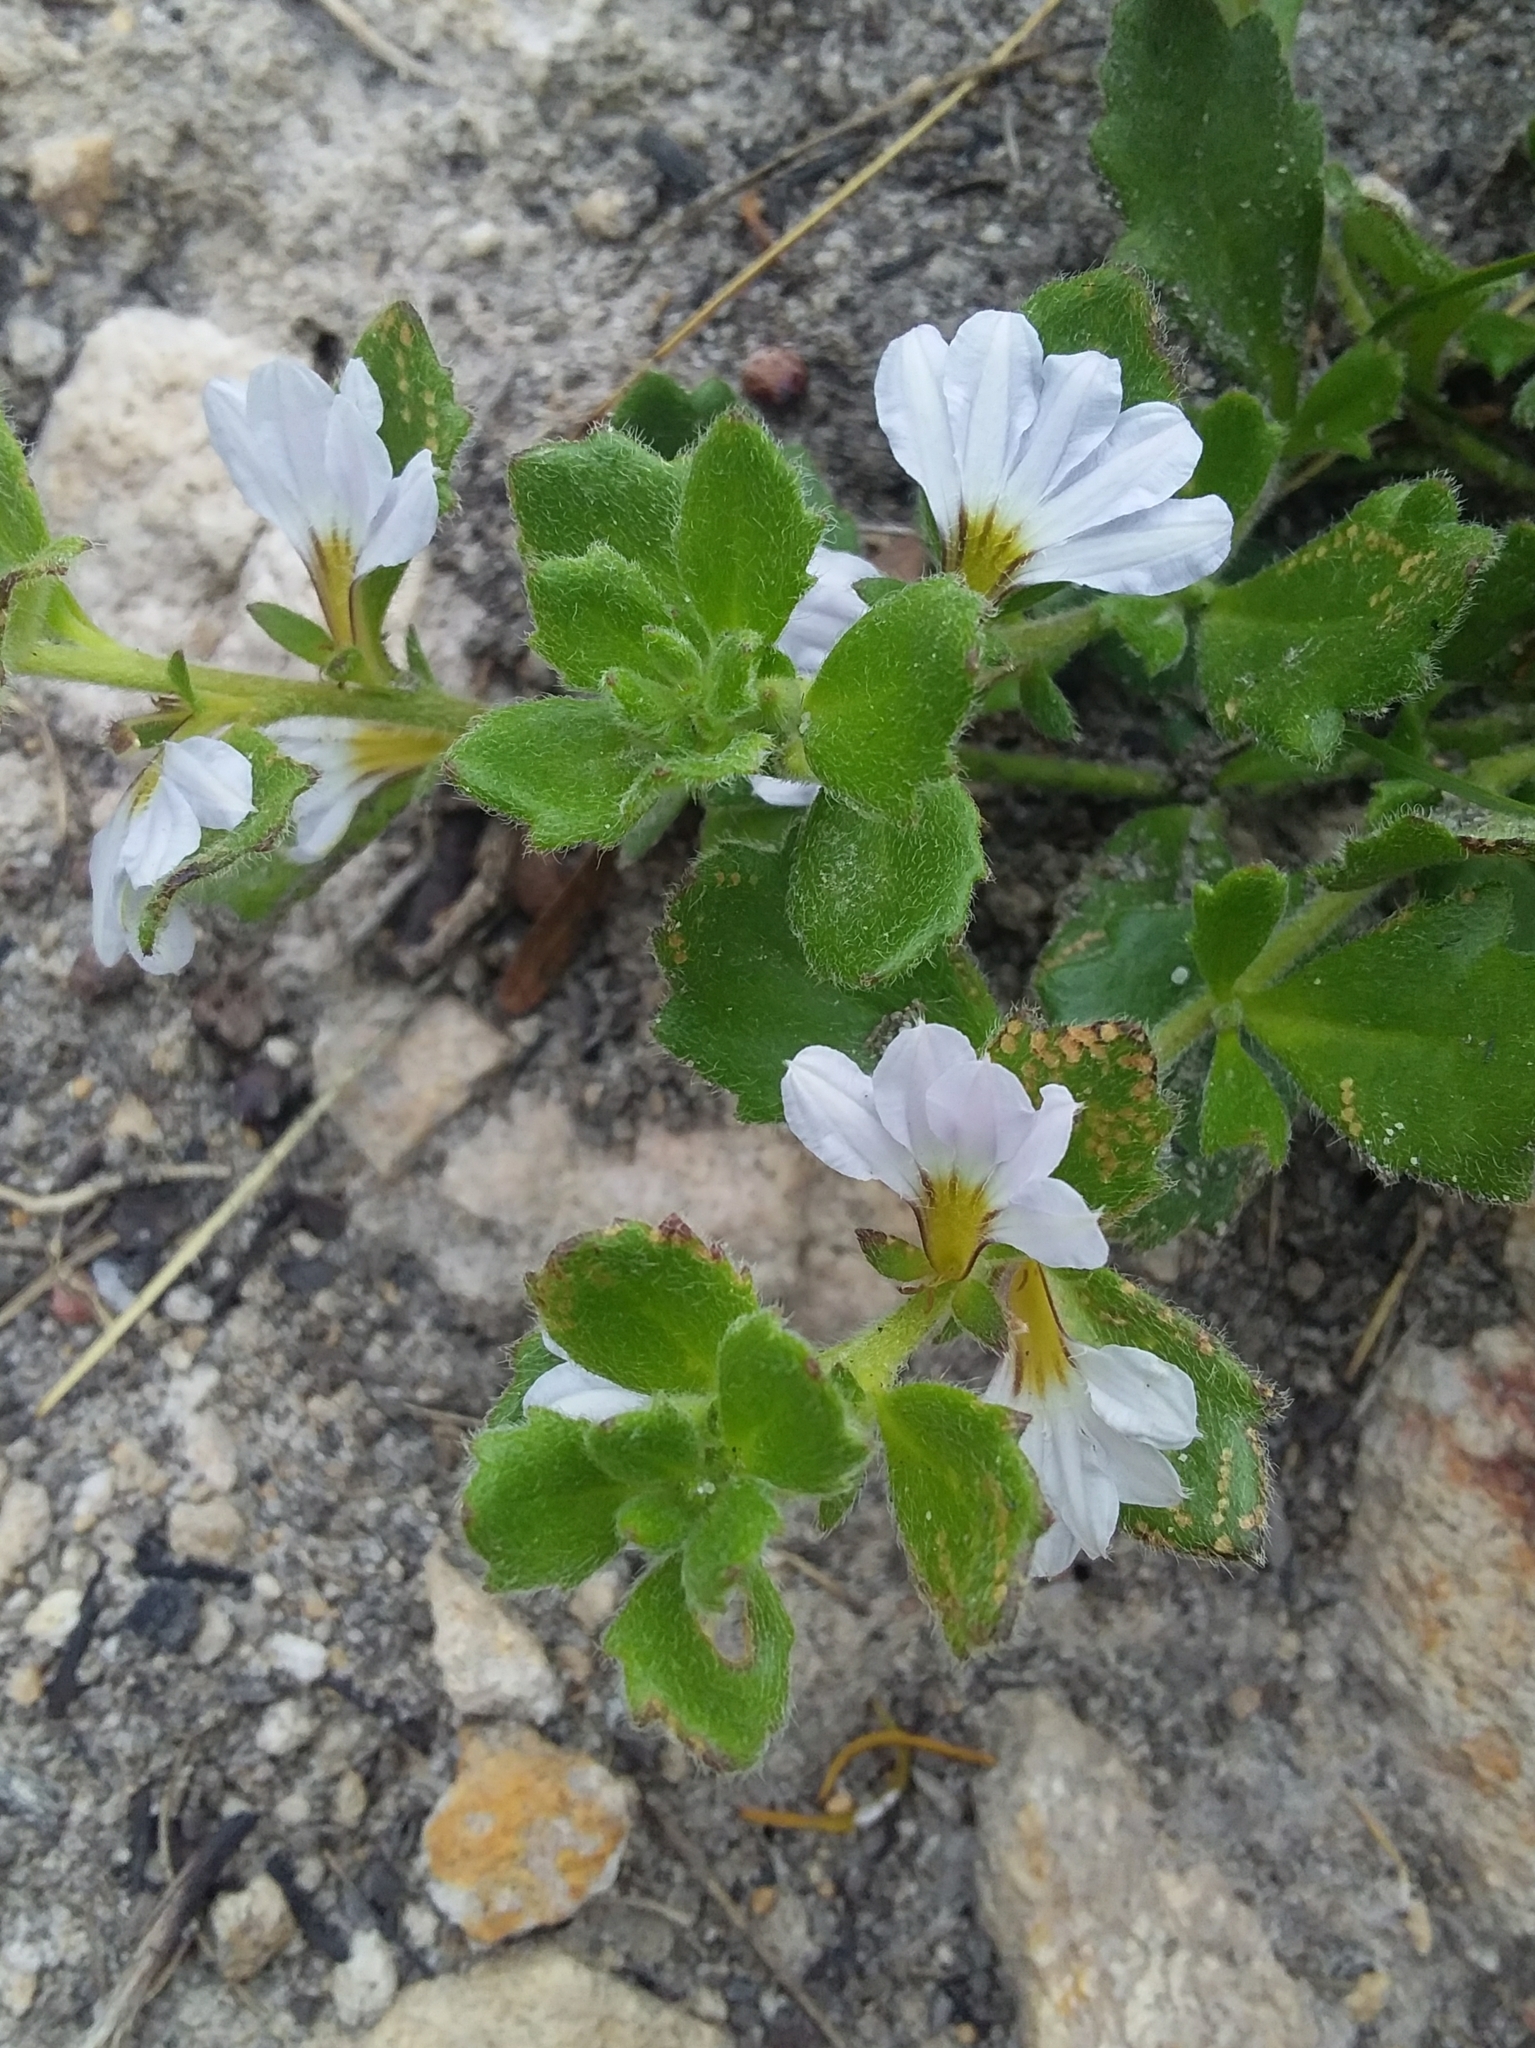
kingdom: Plantae
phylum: Tracheophyta
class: Magnoliopsida
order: Asterales
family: Goodeniaceae
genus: Scaevola
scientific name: Scaevola albida
